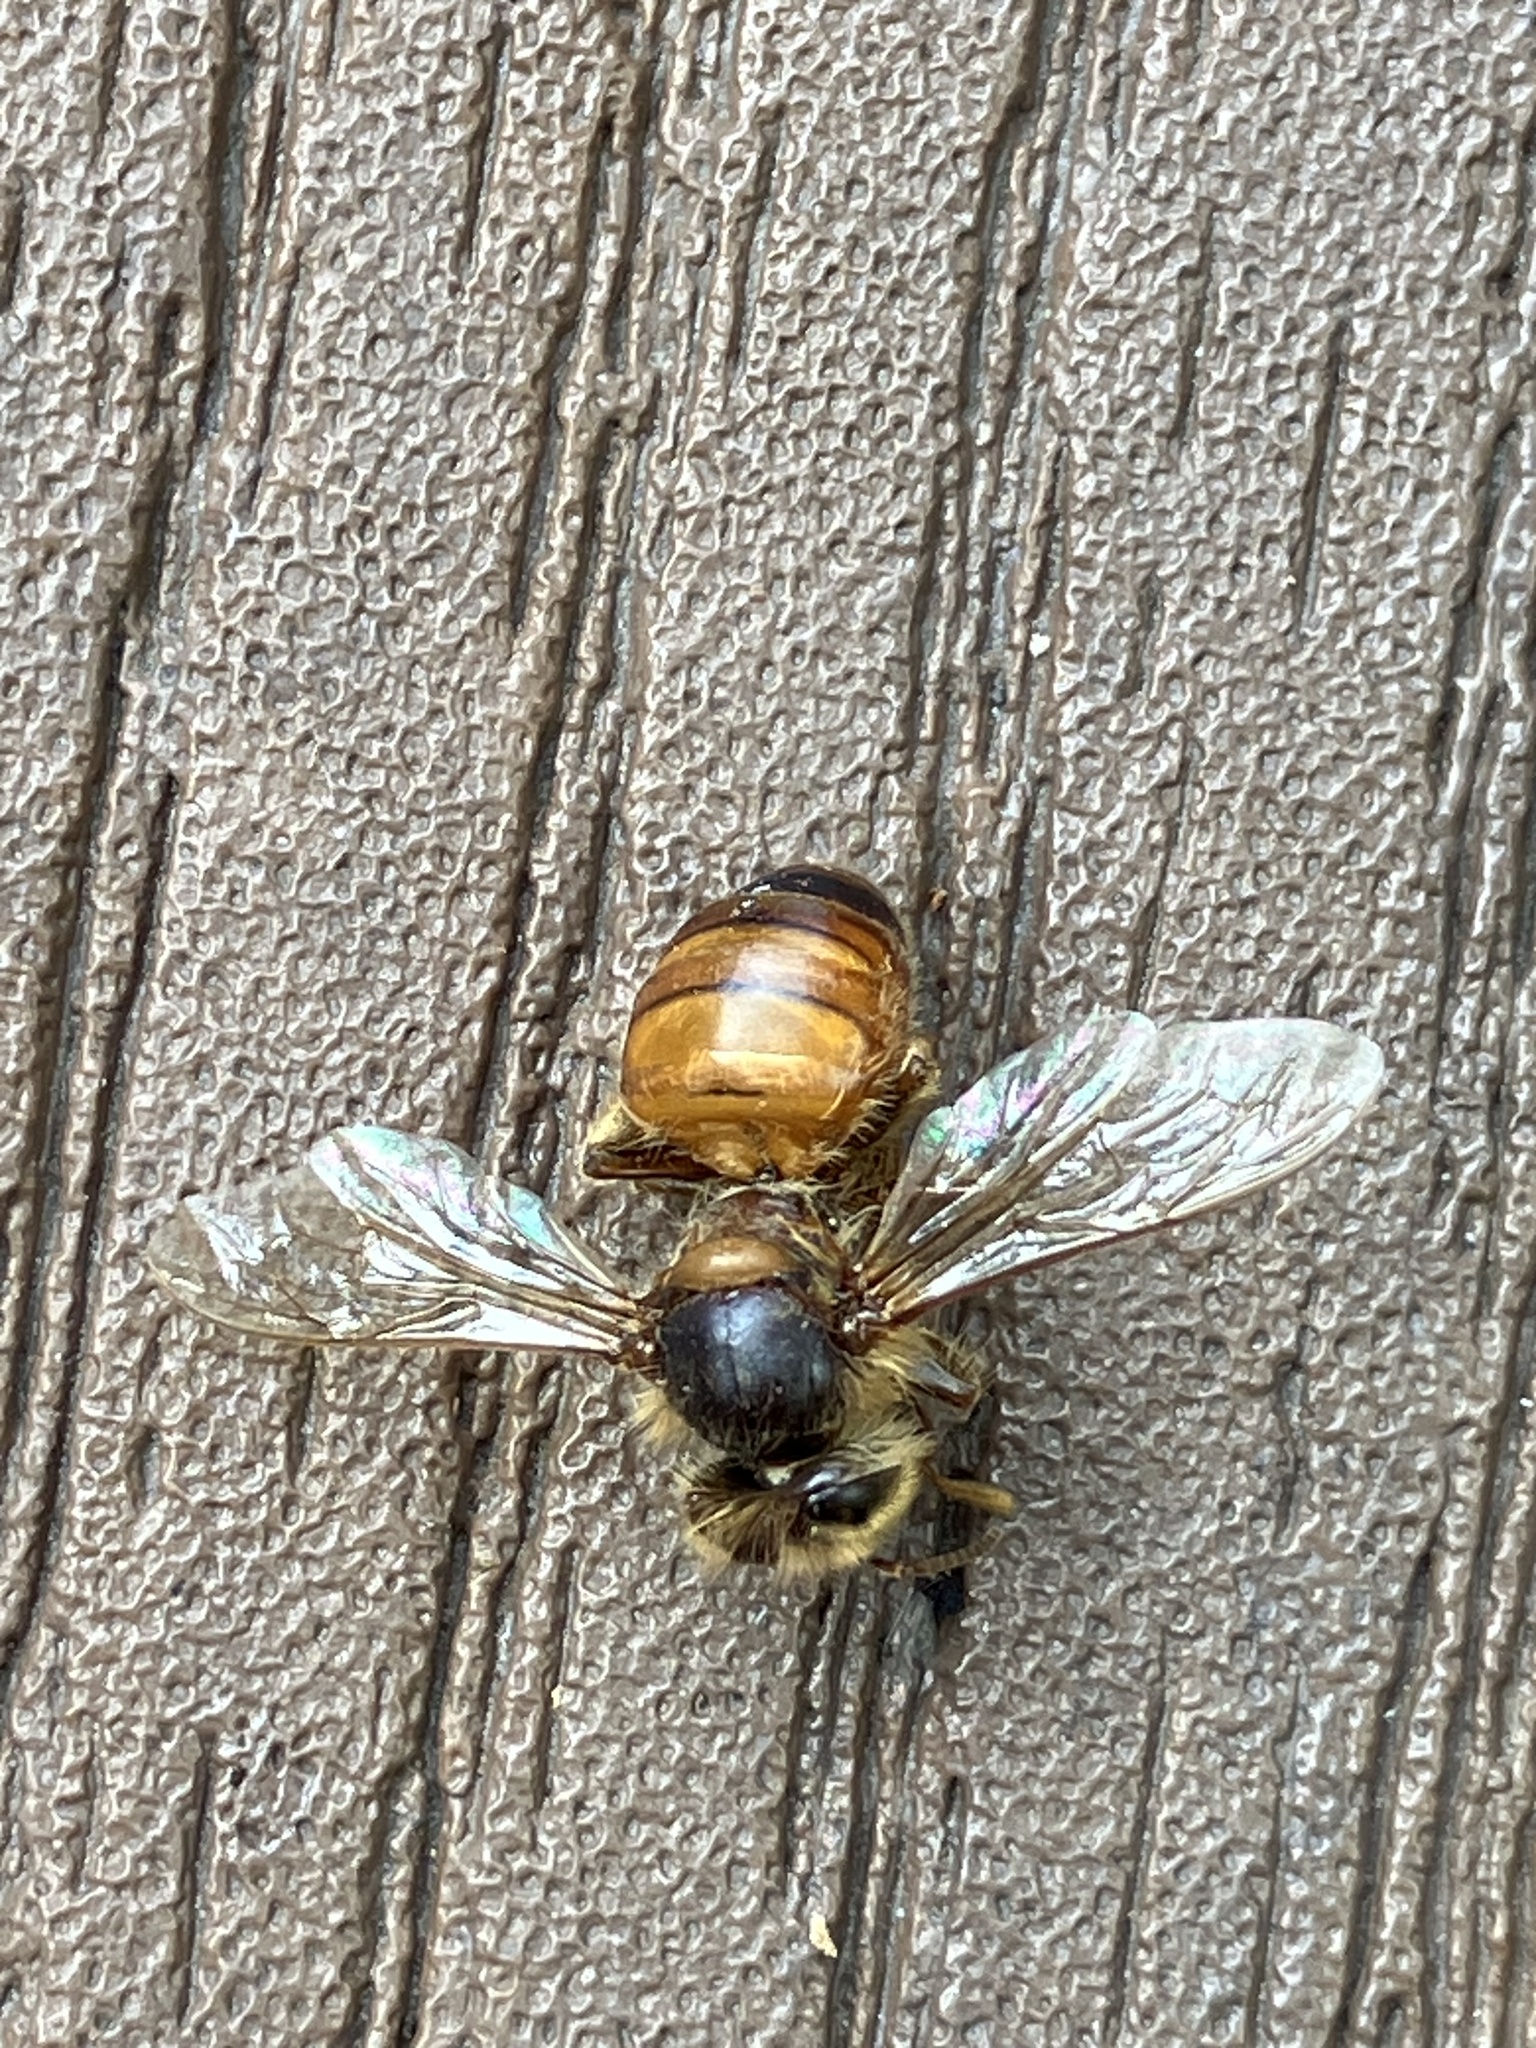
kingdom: Animalia
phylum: Arthropoda
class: Insecta
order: Hymenoptera
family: Apidae
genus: Apis
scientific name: Apis mellifera
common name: Honey bee
